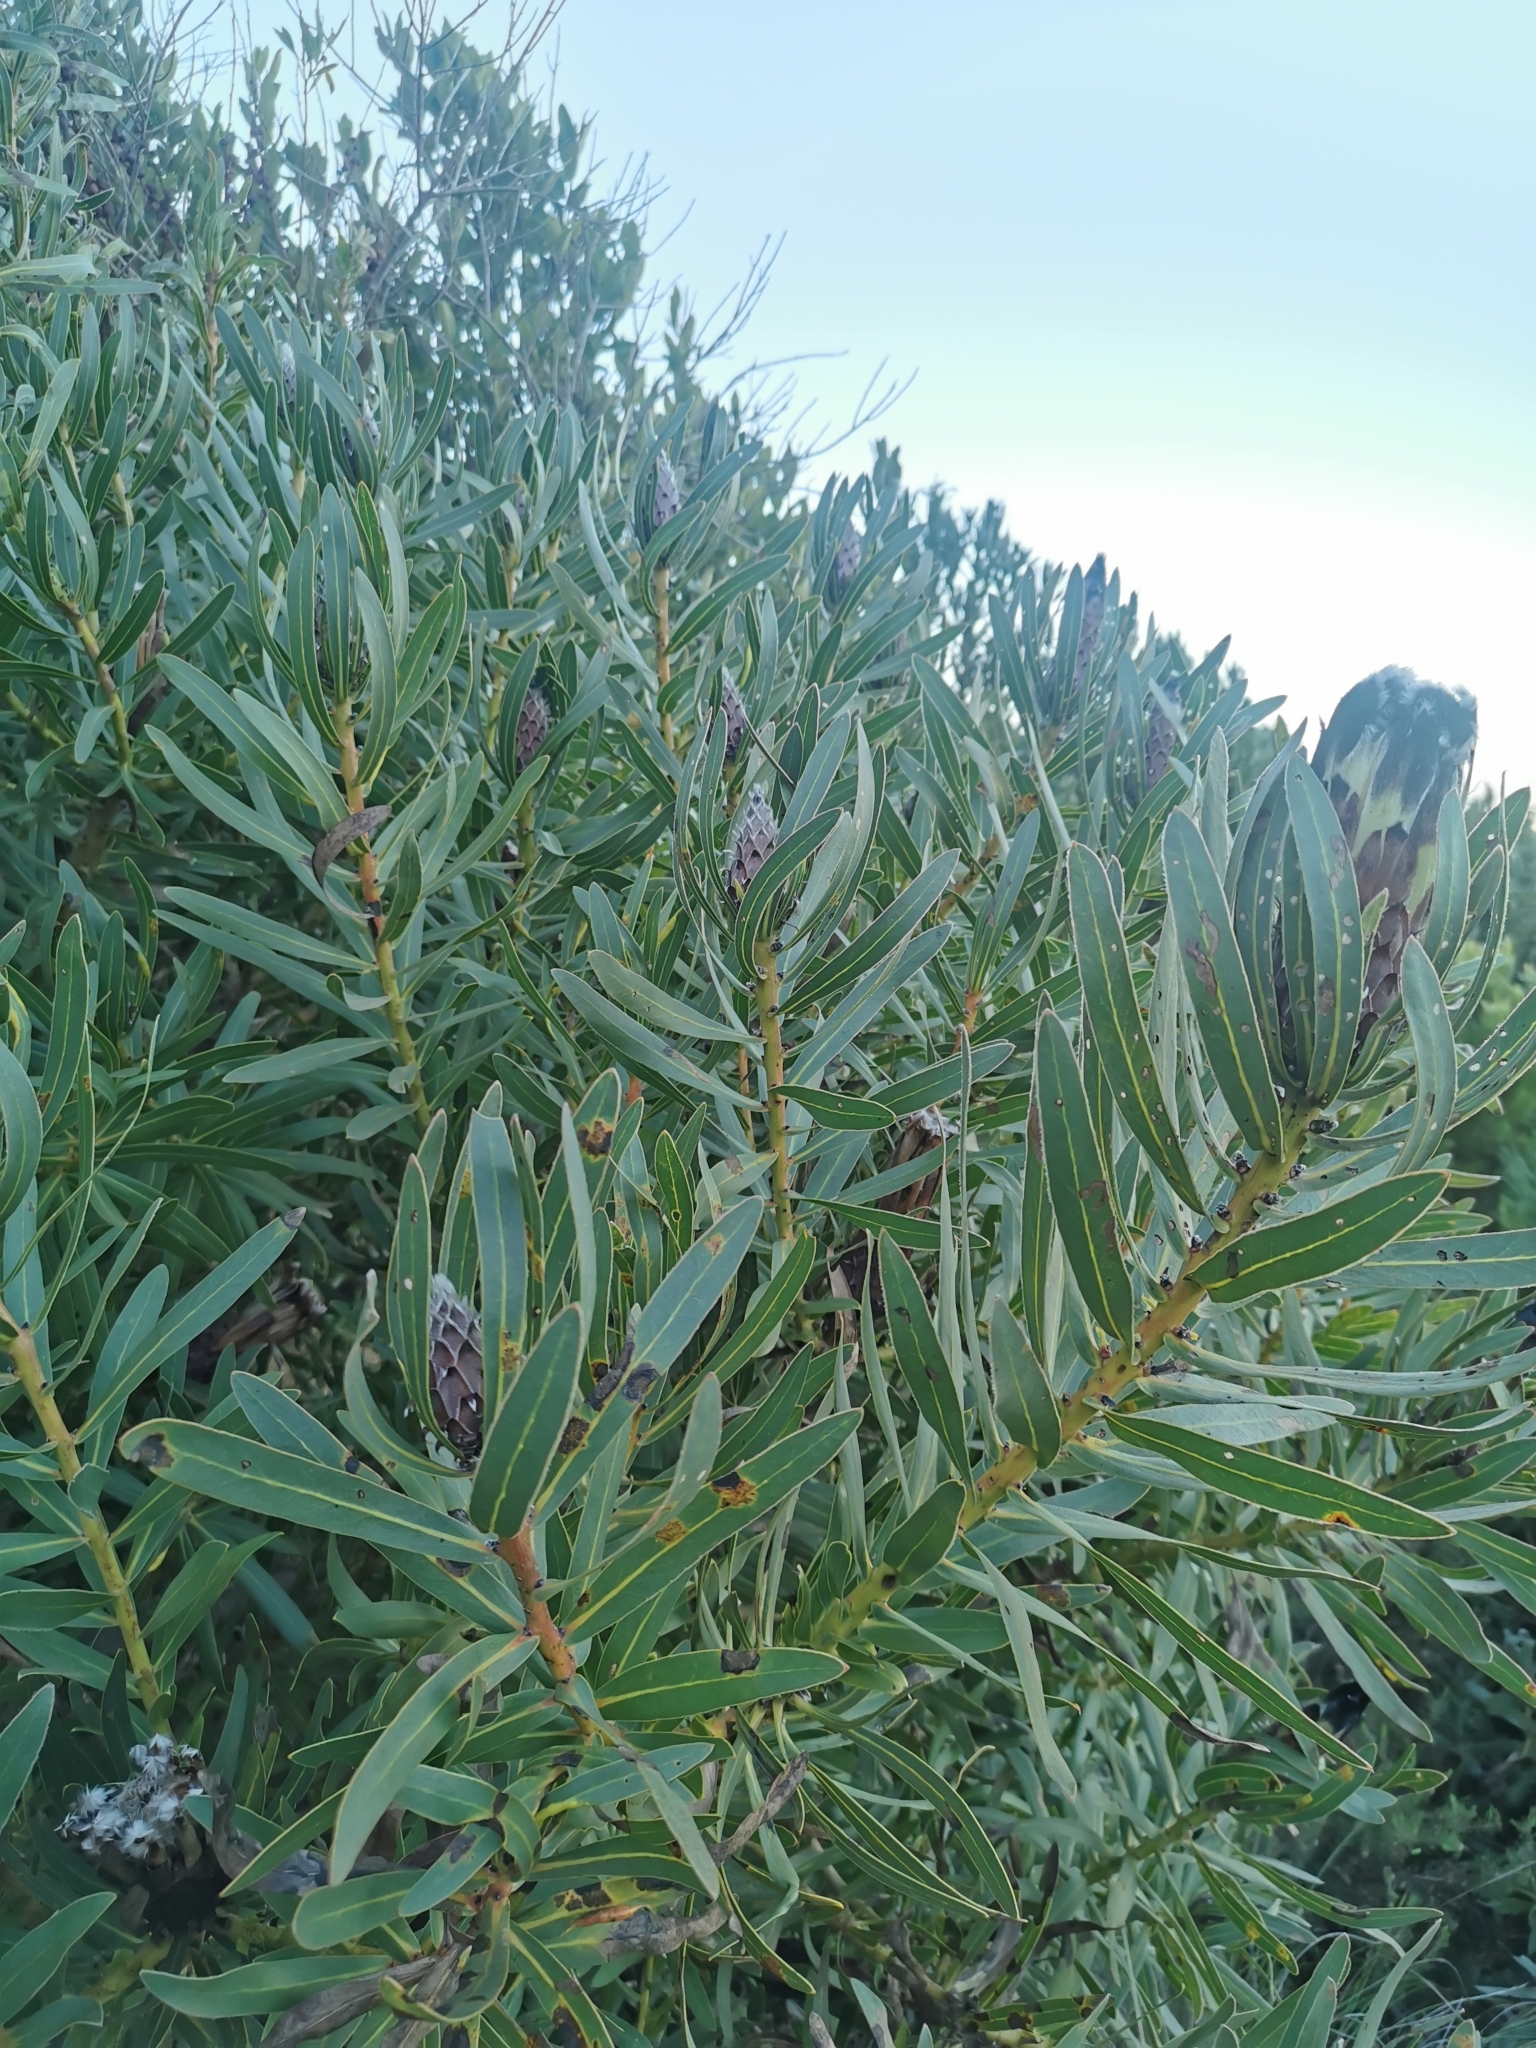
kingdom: Plantae
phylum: Tracheophyta
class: Magnoliopsida
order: Proteales
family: Proteaceae
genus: Protea
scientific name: Protea lepidocarpodendron
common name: Black-bearded protea
